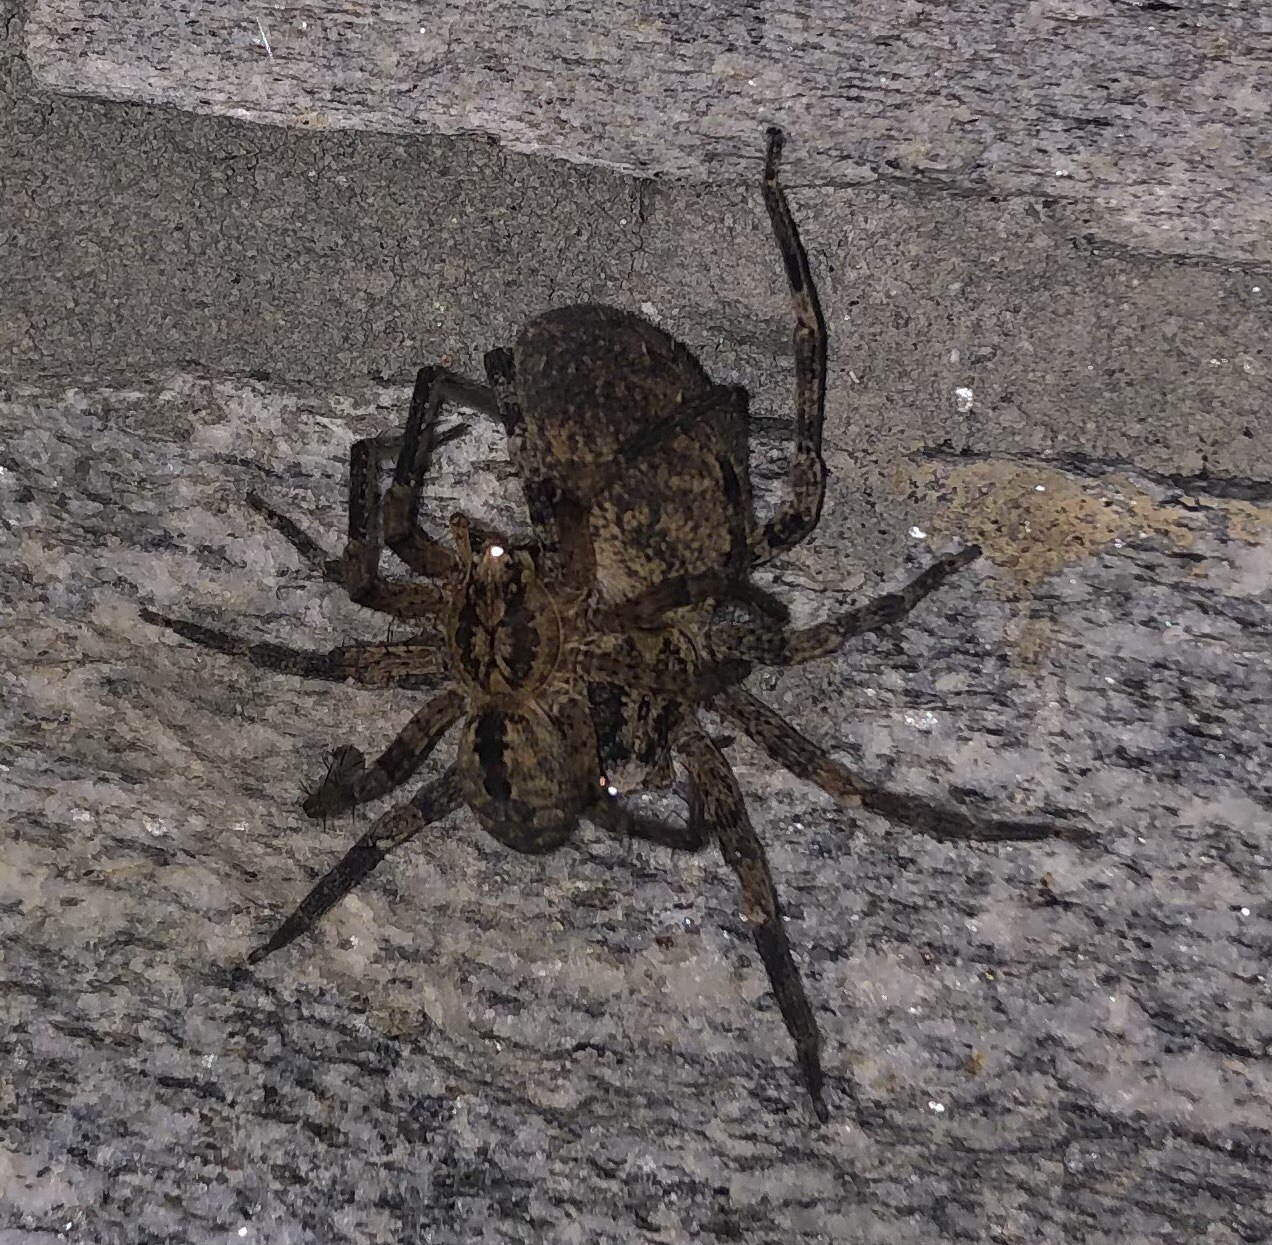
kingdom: Animalia
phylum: Arthropoda
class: Arachnida
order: Araneae
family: Zoropsidae
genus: Zoropsis
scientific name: Zoropsis spinimana
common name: Zoropsid spider
